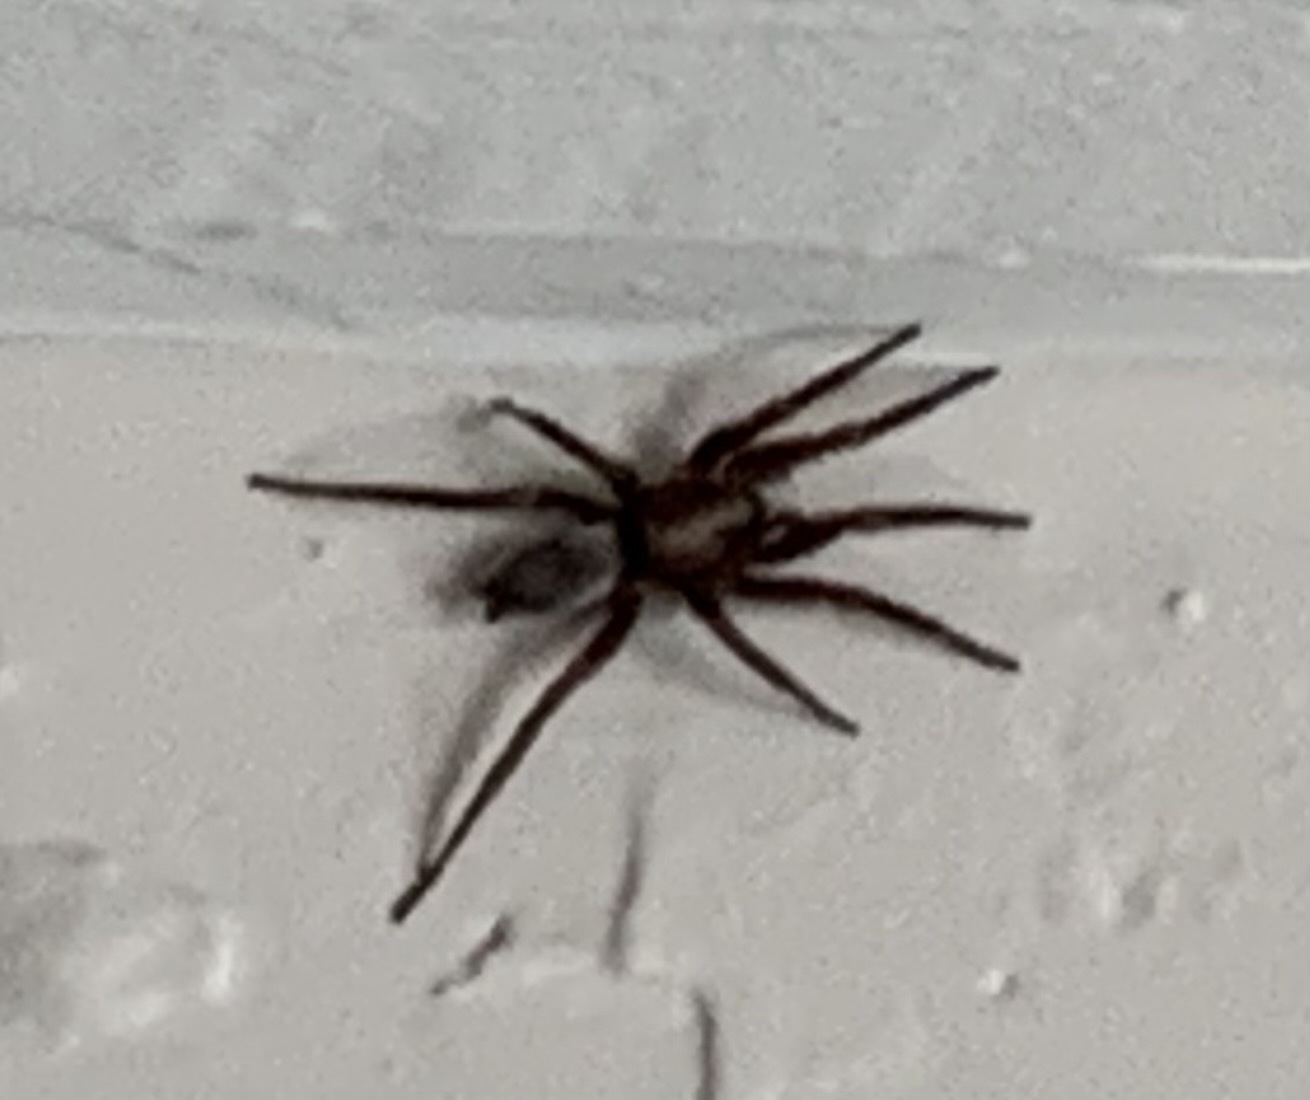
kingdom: Animalia
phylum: Arthropoda
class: Arachnida
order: Araneae
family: Gnaphosidae
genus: Scotophaeus
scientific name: Scotophaeus blackwalli
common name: Mouse spider
